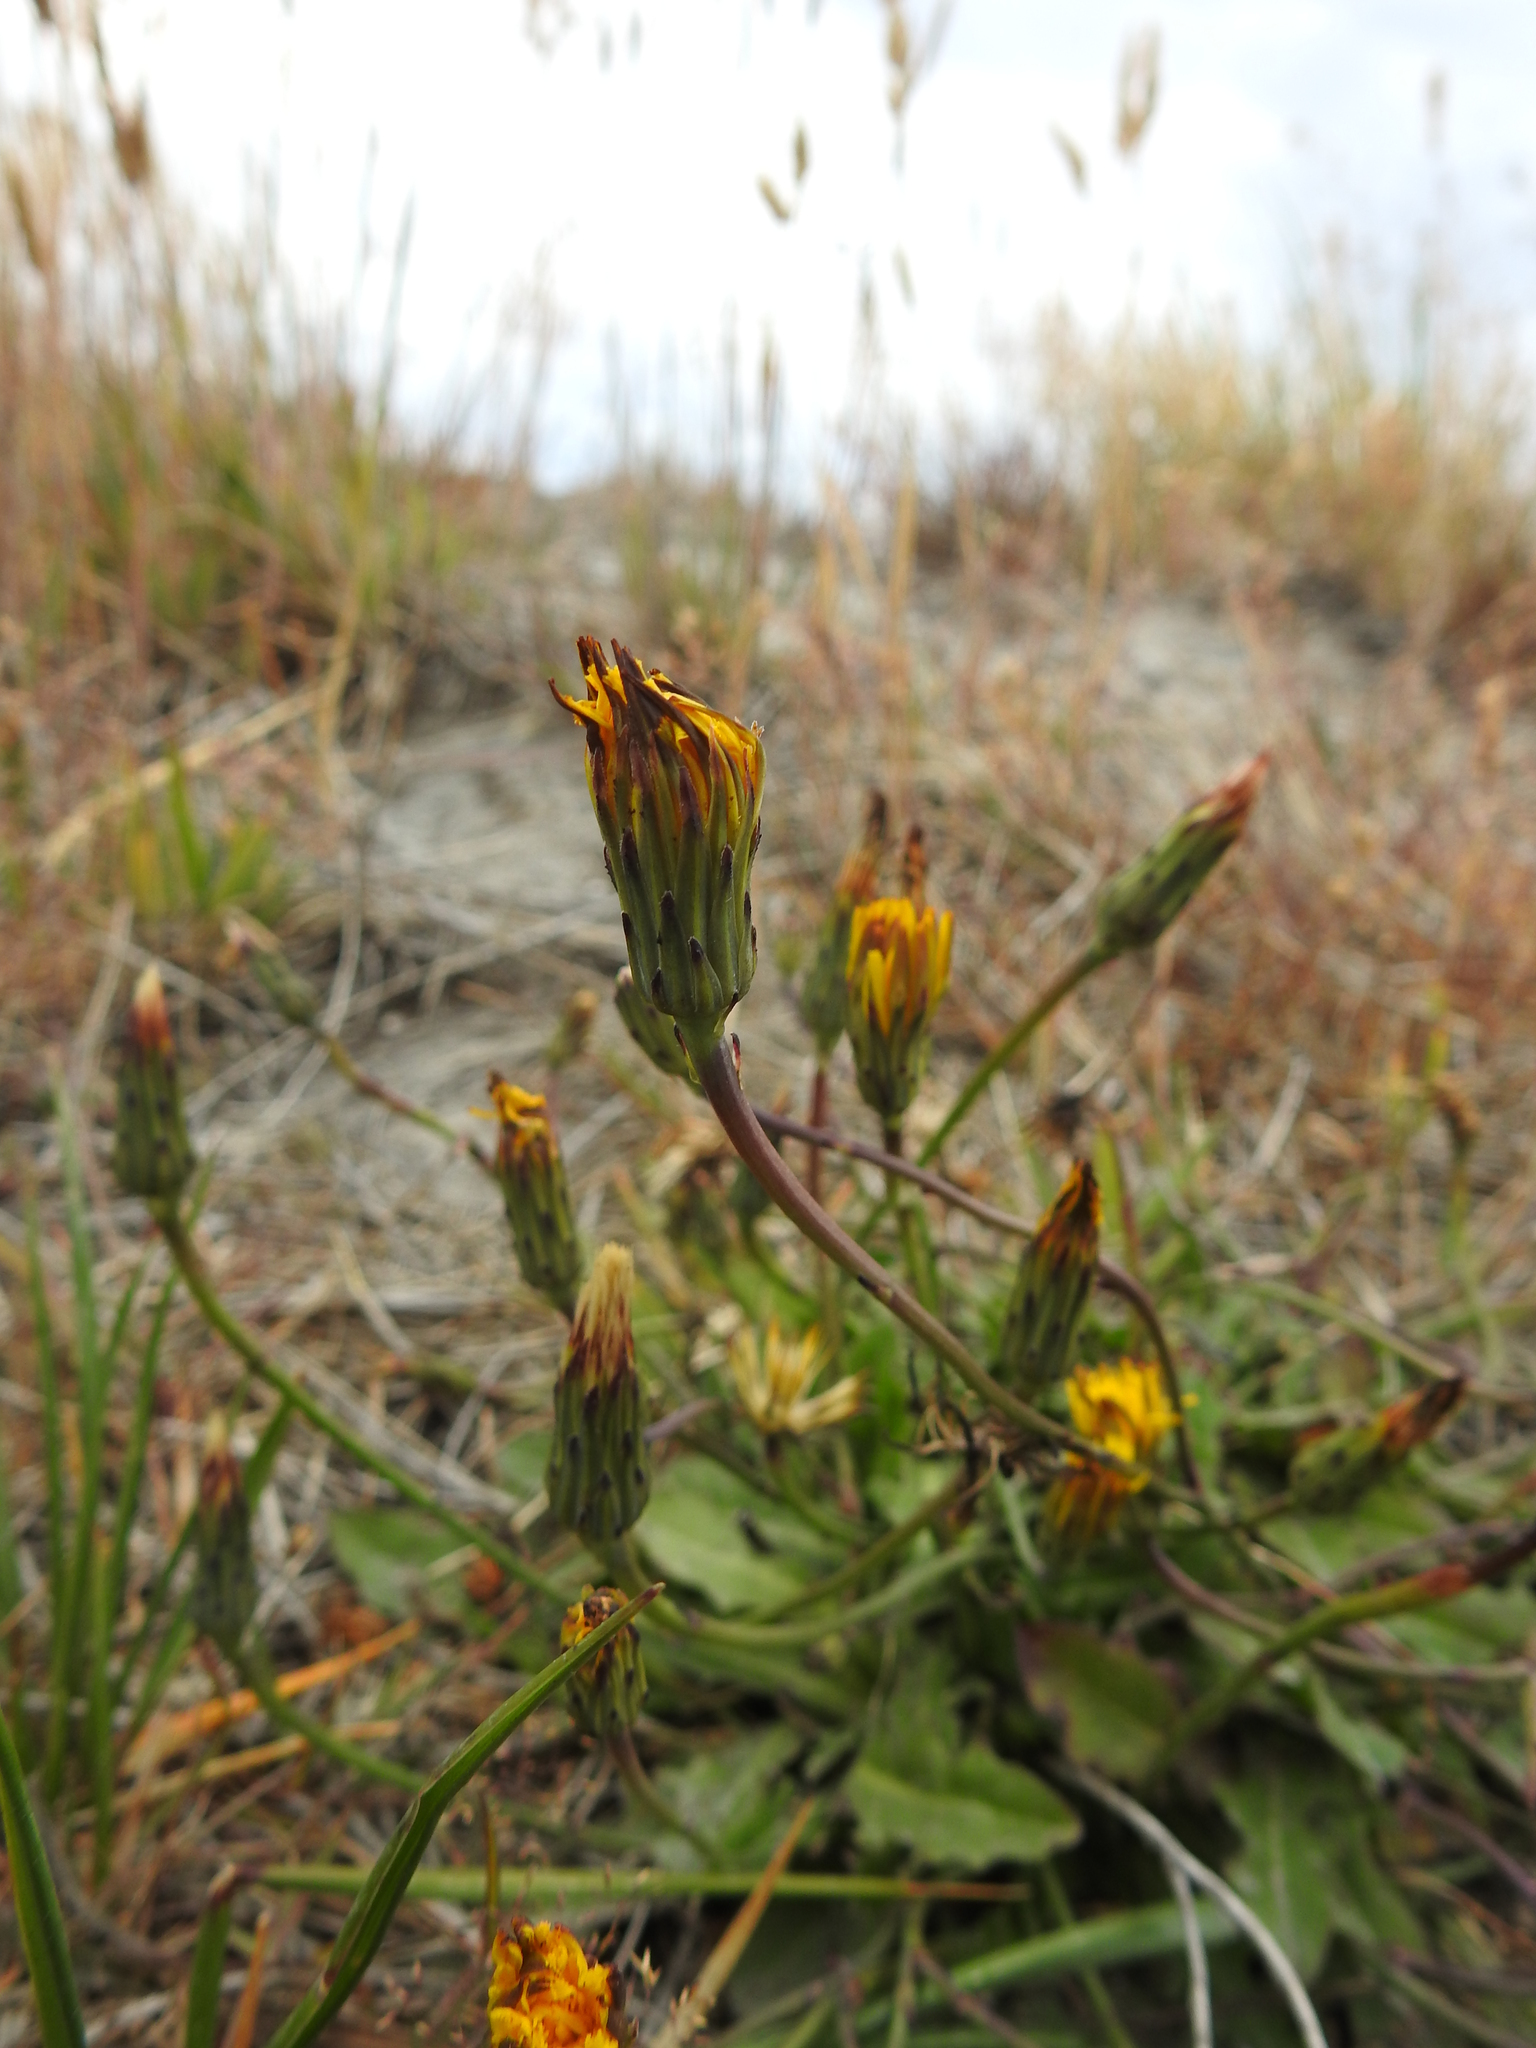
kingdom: Plantae
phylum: Tracheophyta
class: Magnoliopsida
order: Asterales
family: Asteraceae
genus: Hypochaeris
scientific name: Hypochaeris radicata
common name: Flatweed
